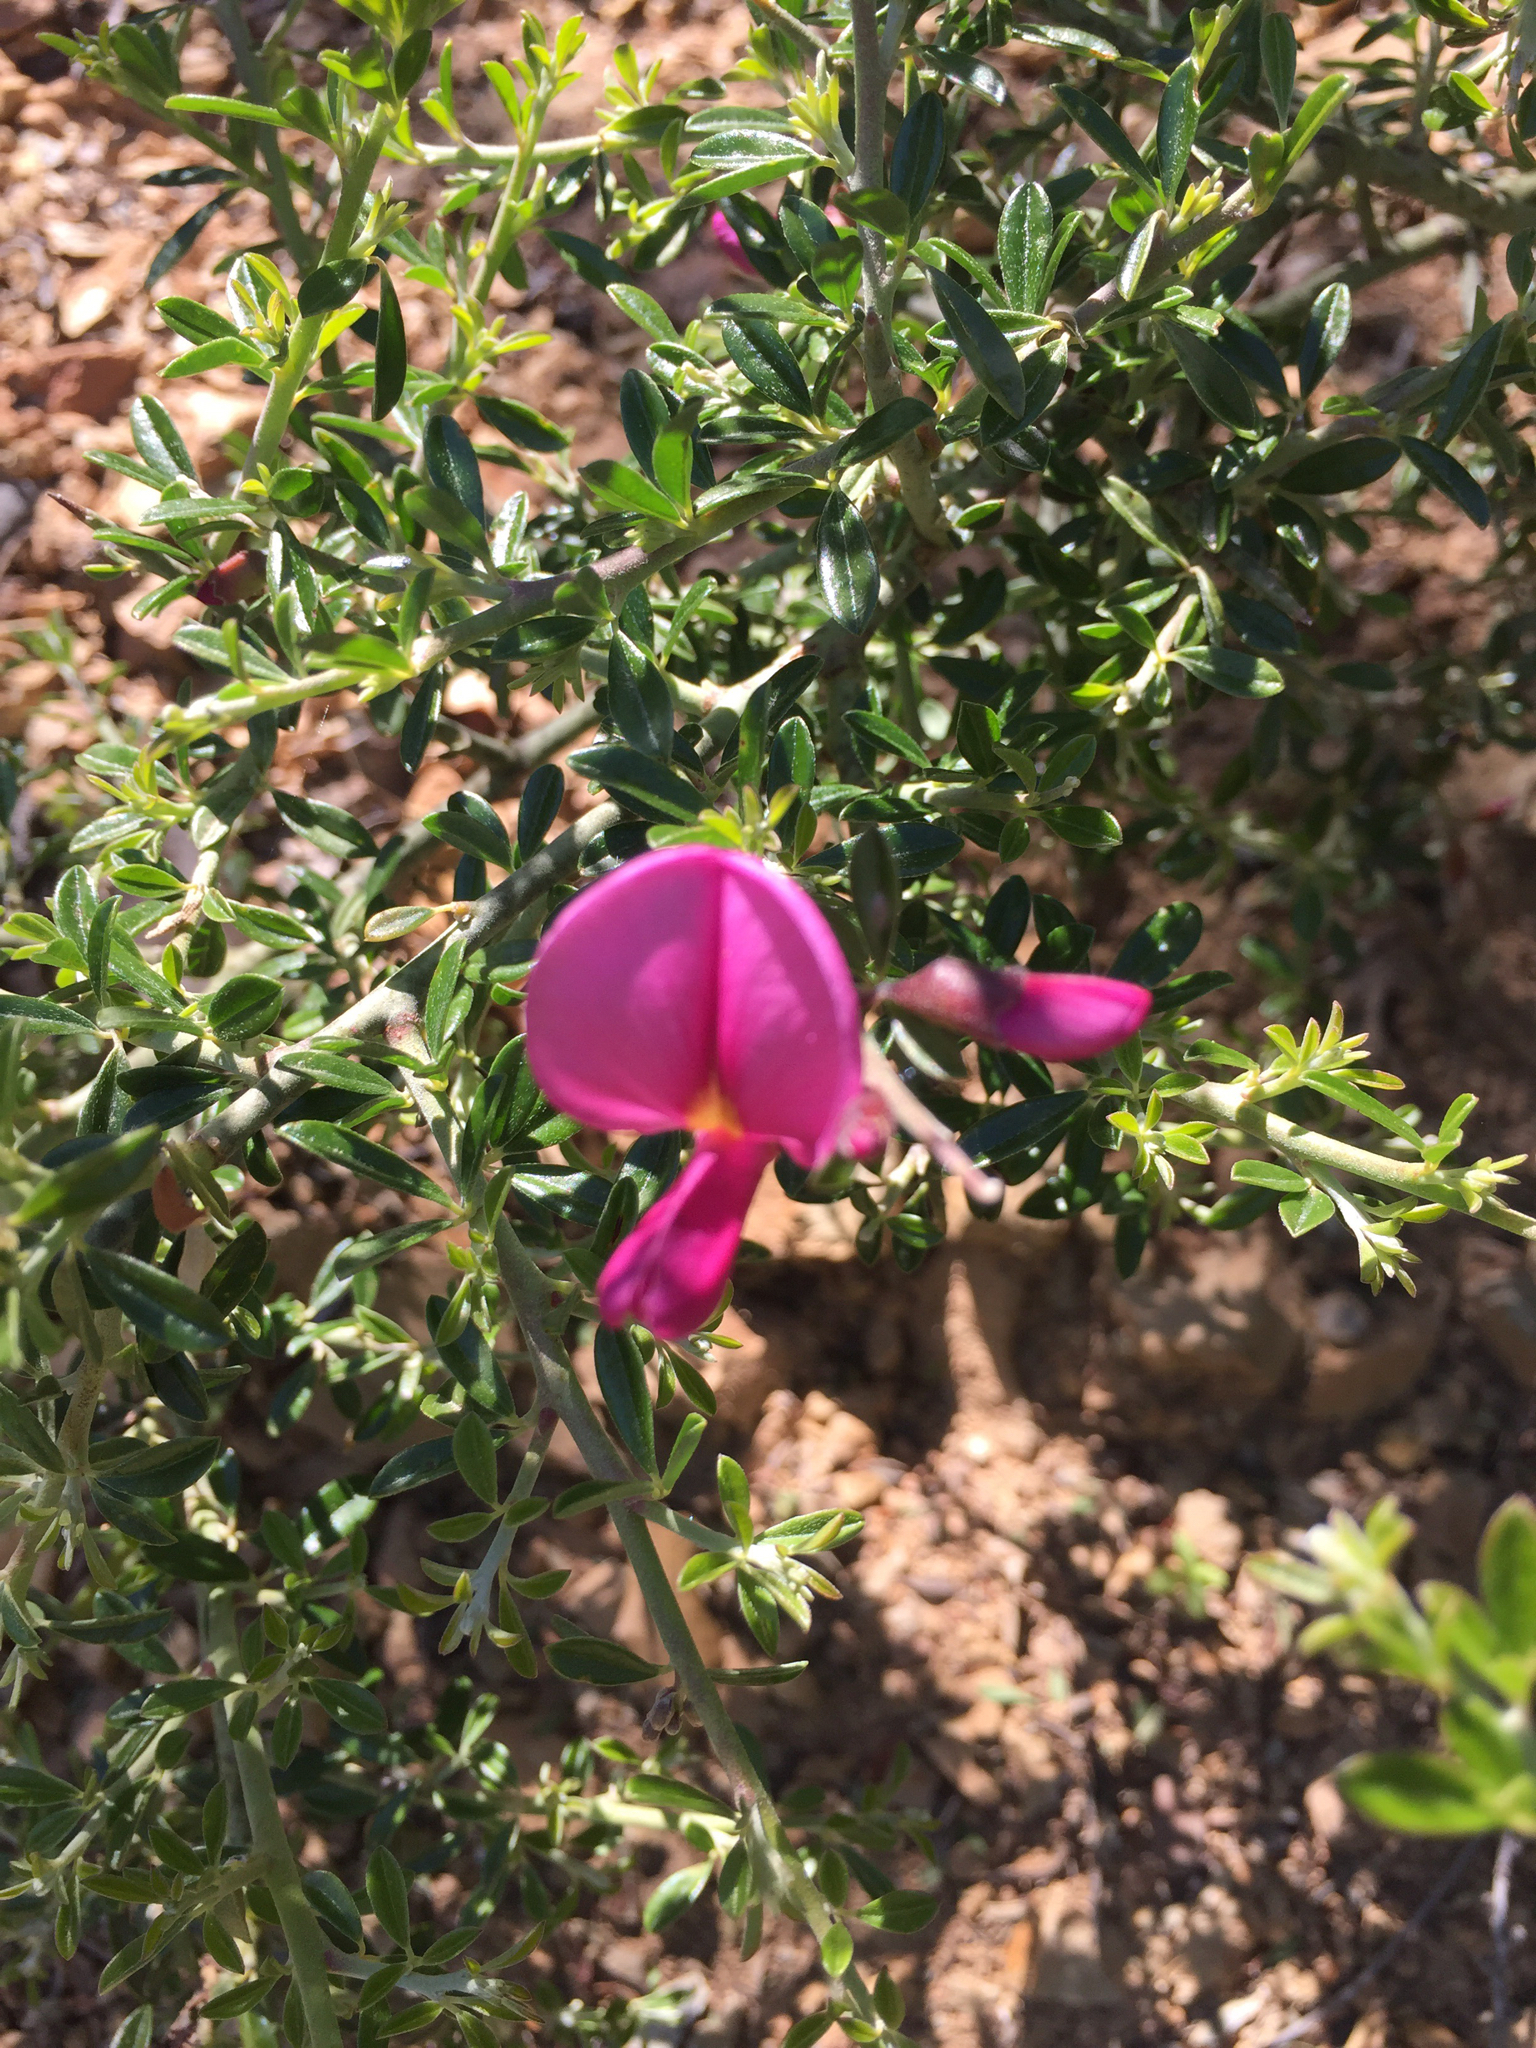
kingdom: Plantae
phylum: Tracheophyta
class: Magnoliopsida
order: Fabales
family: Fabaceae
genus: Pickeringia
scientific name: Pickeringia montana
